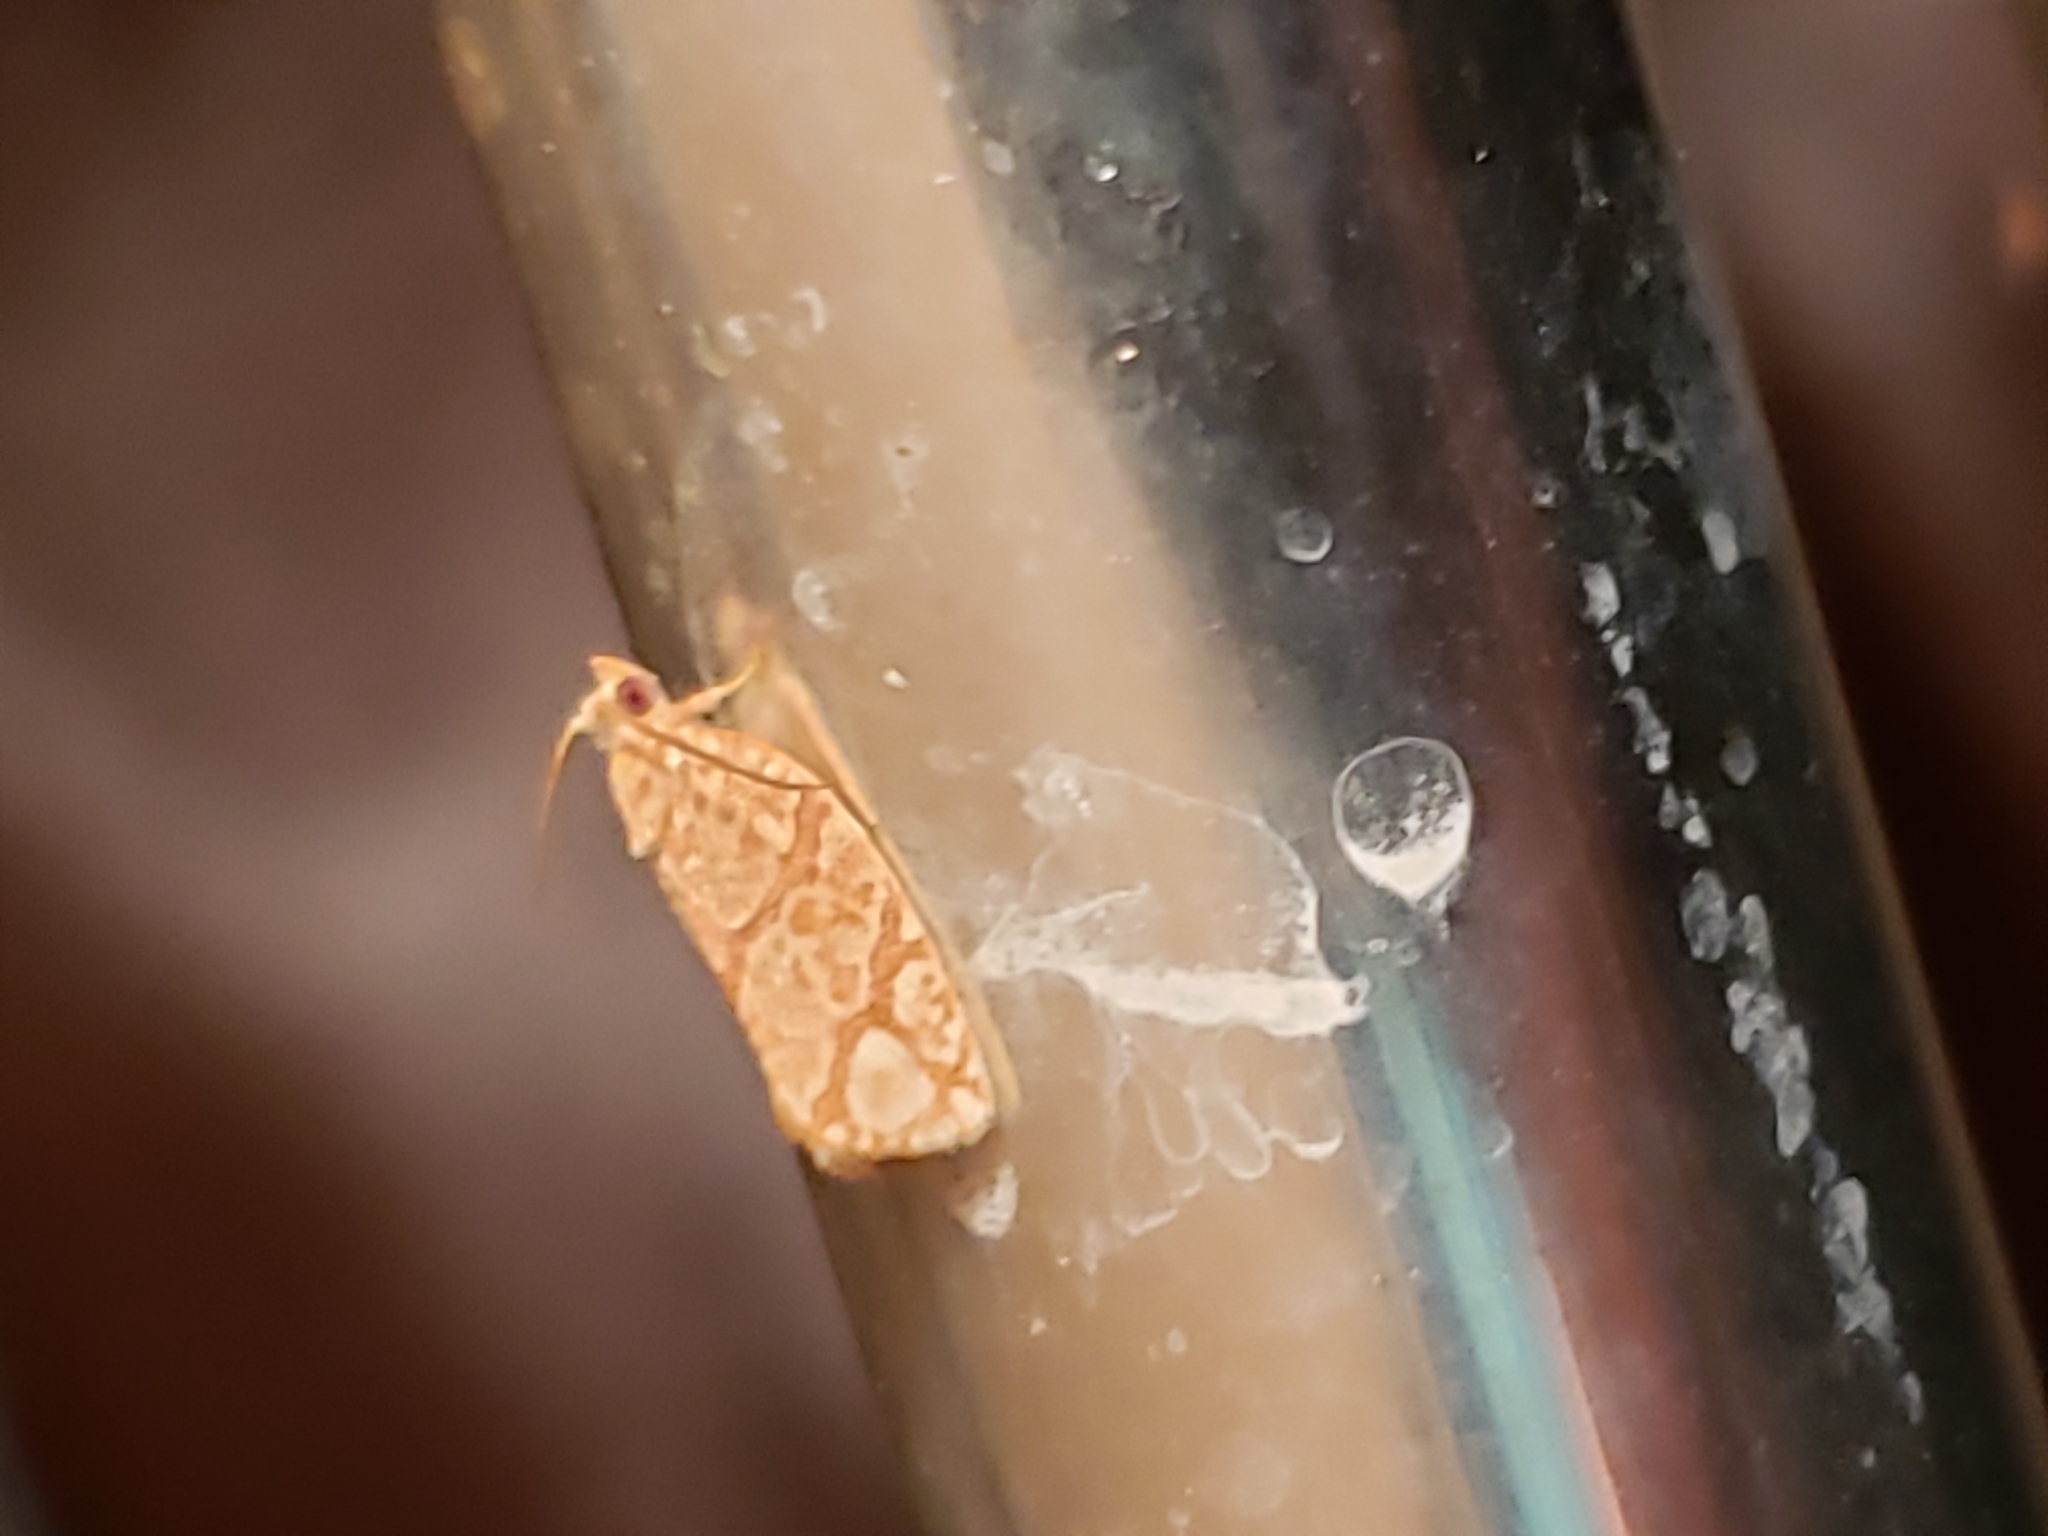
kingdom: Animalia
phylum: Arthropoda
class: Insecta
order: Lepidoptera
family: Tortricidae
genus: Argyrotaenia
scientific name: Argyrotaenia quercifoliana
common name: Yellow-winged oak leafroller moth
